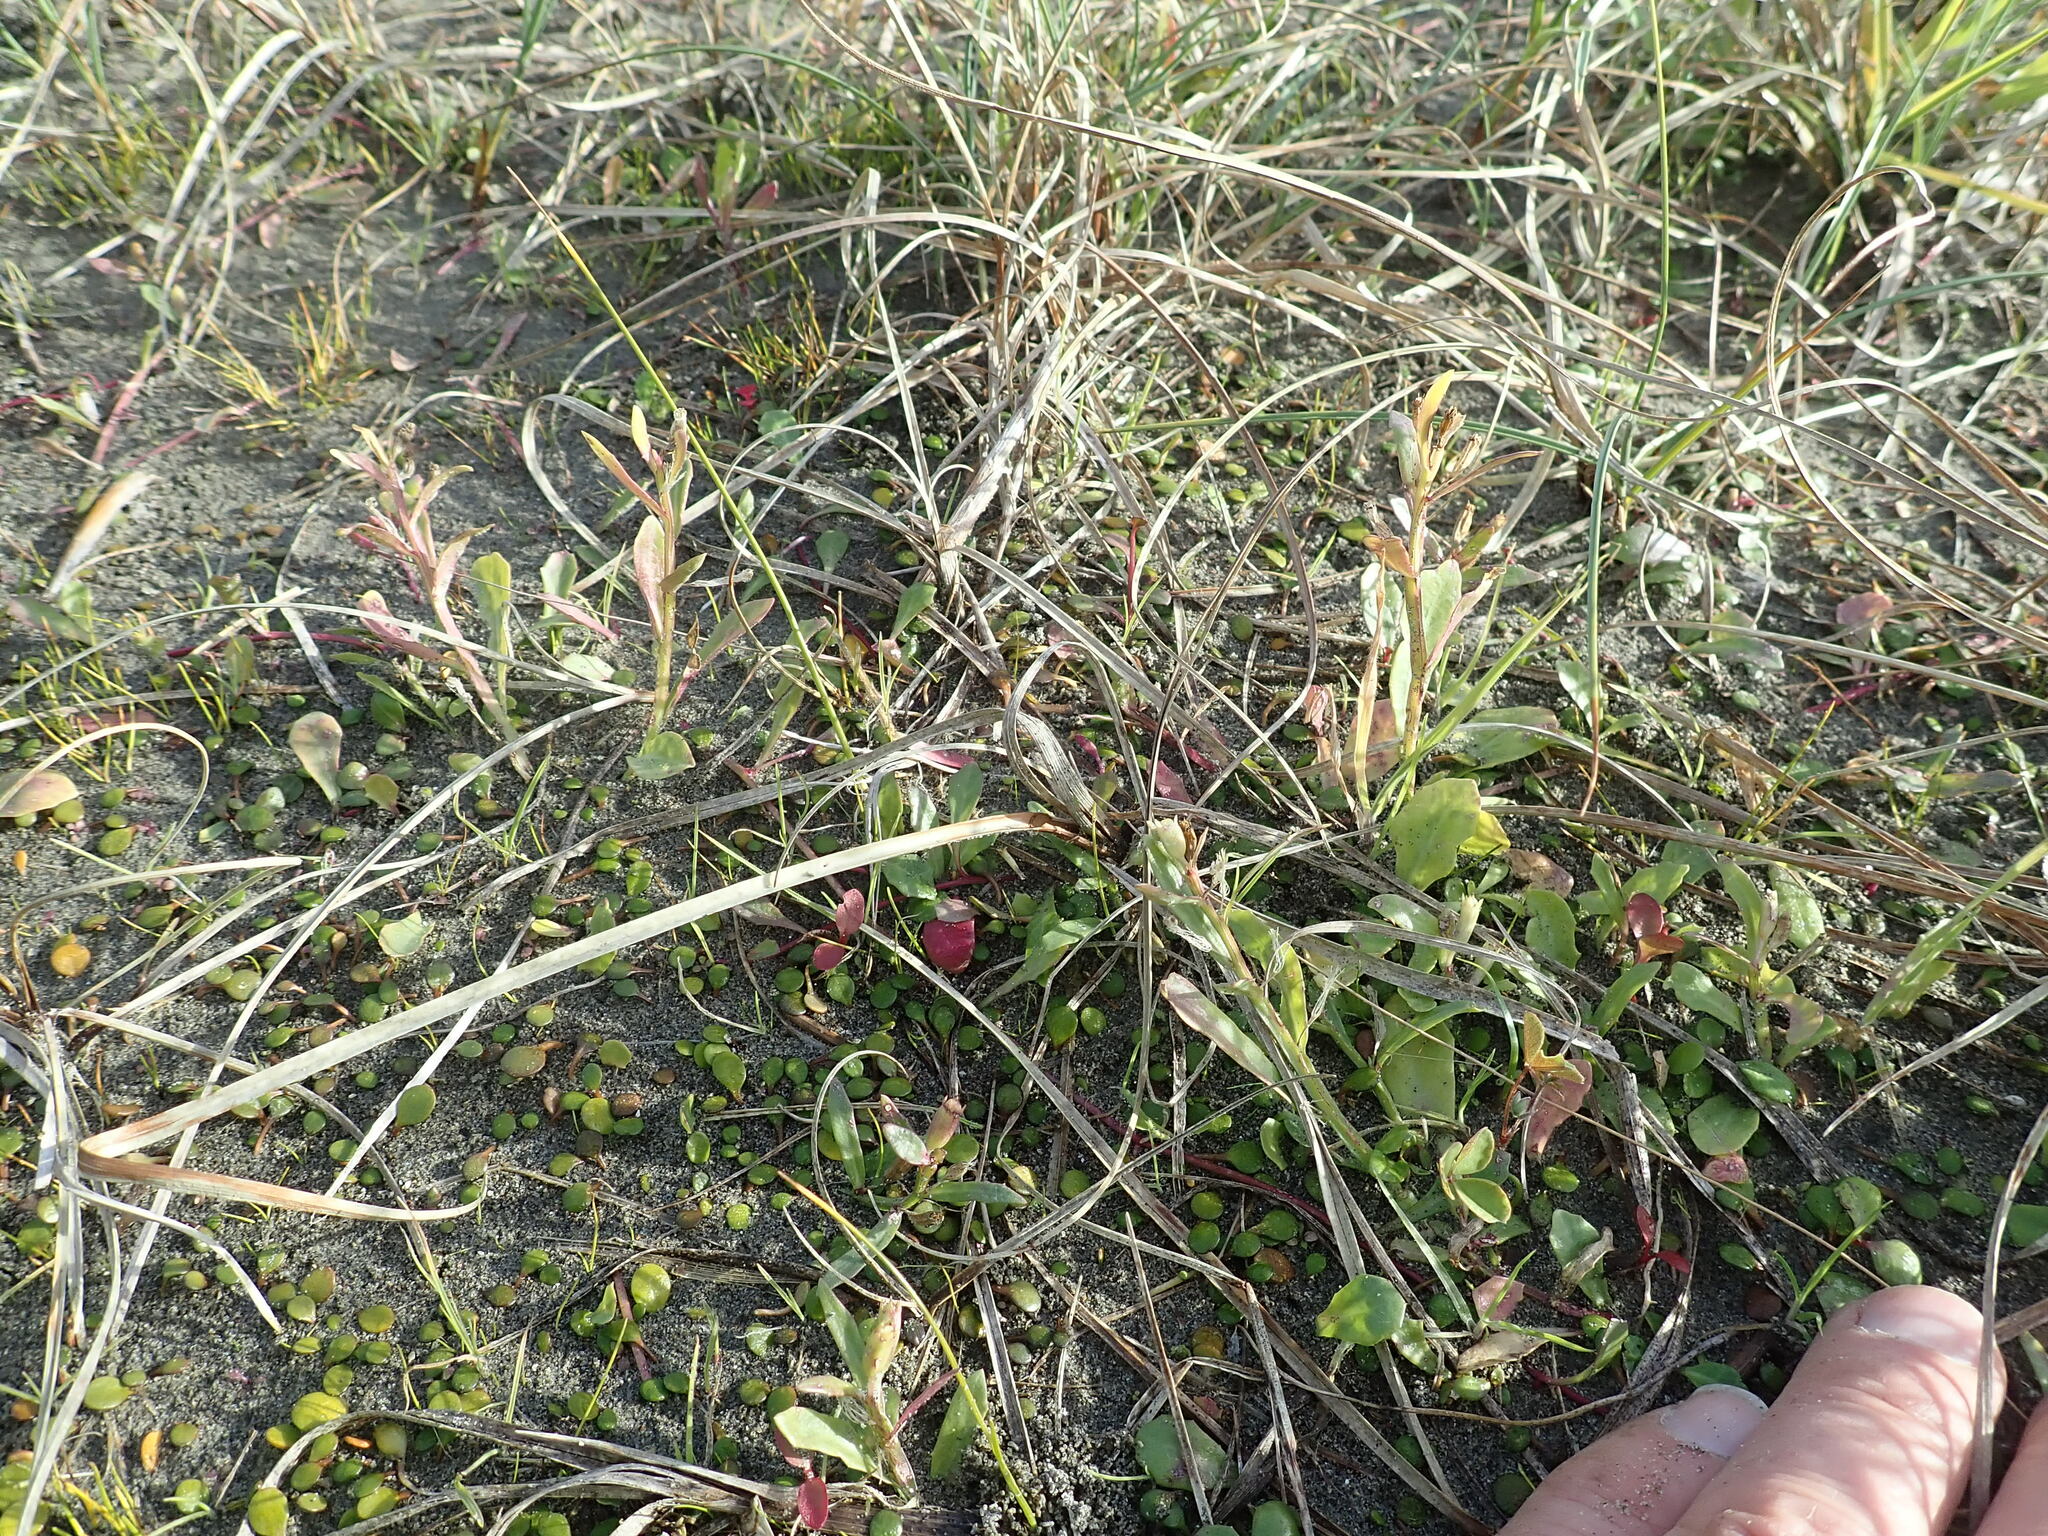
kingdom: Plantae
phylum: Tracheophyta
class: Magnoliopsida
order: Asterales
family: Campanulaceae
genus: Lobelia
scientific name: Lobelia anceps
